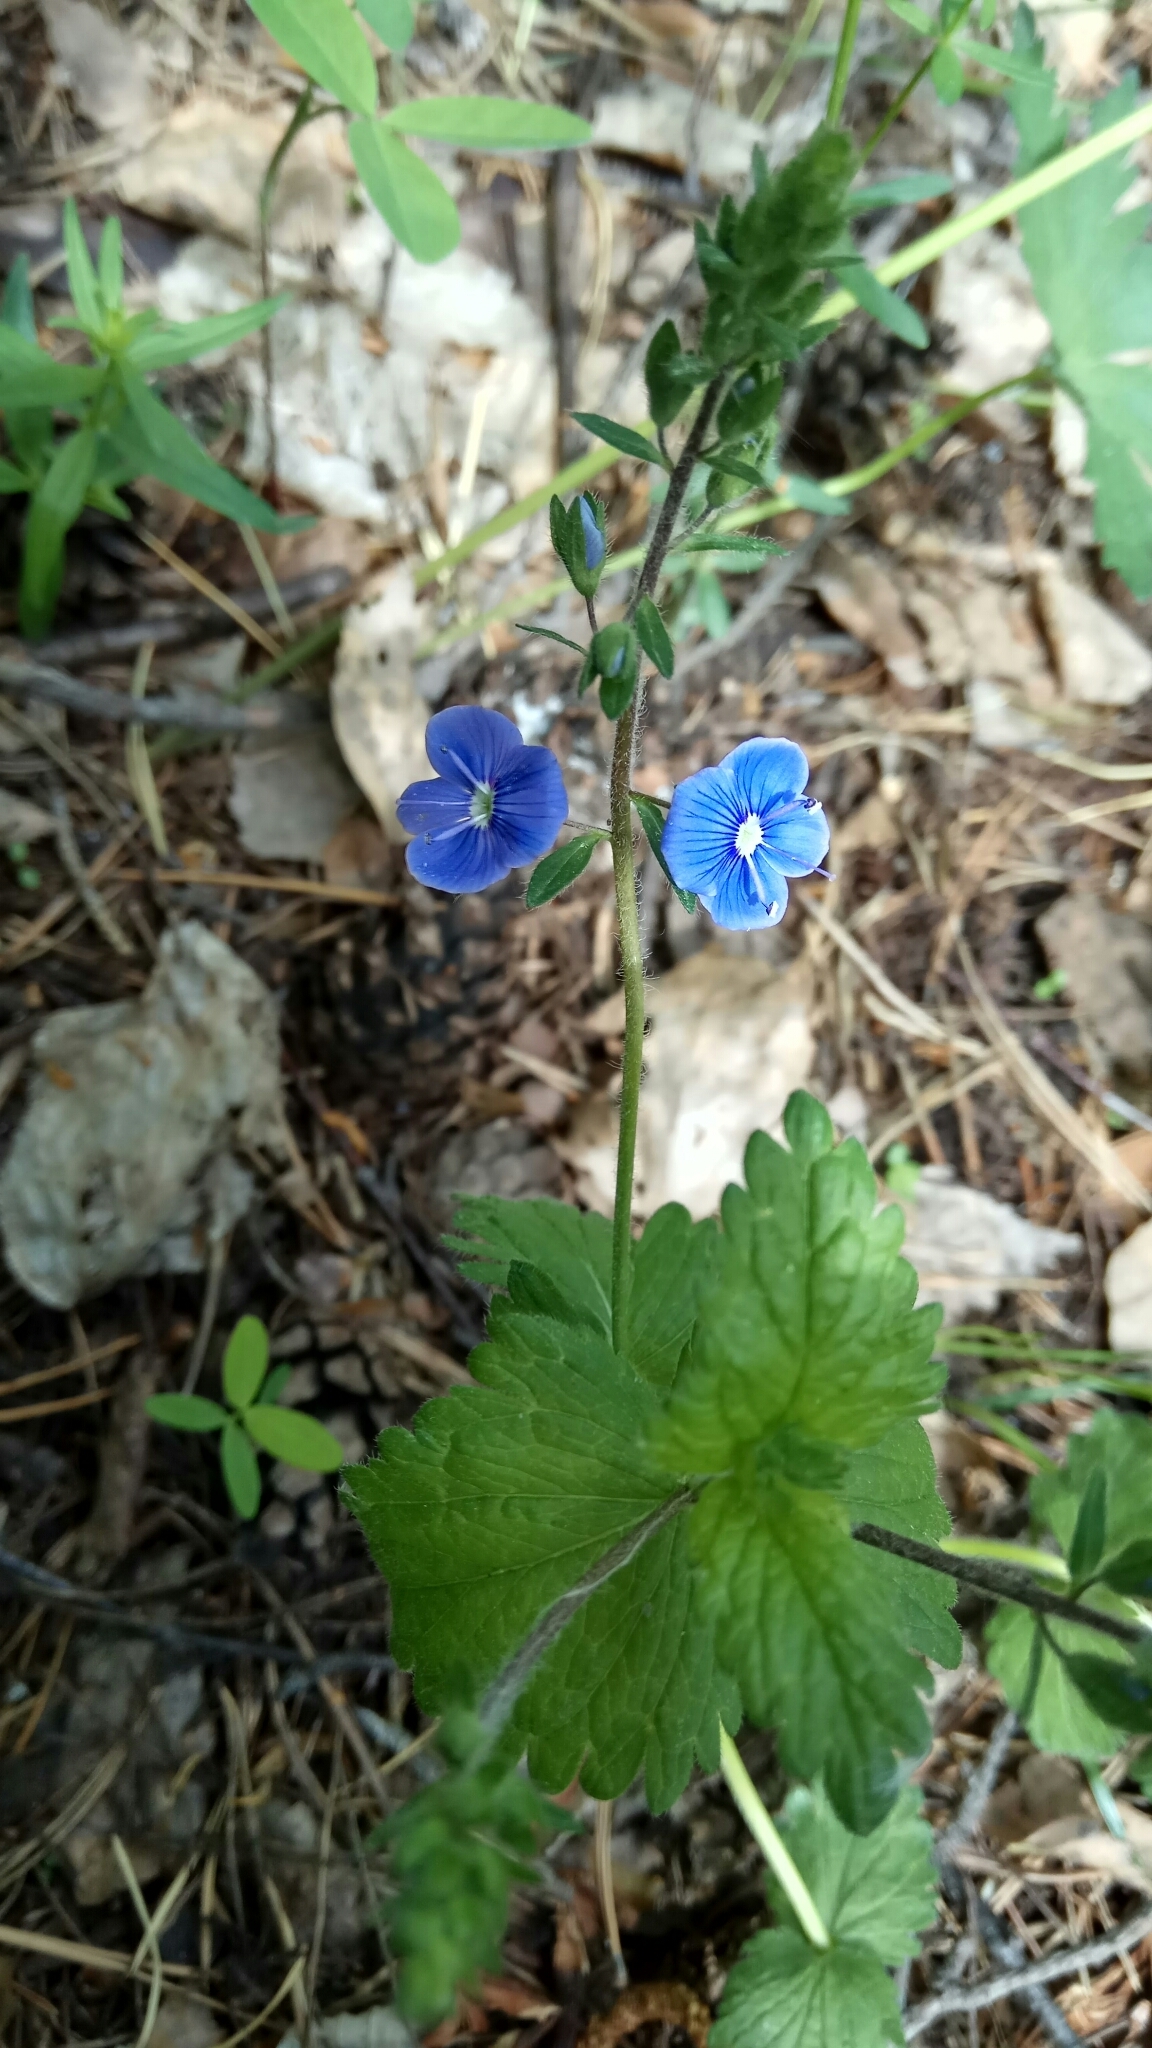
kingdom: Plantae
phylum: Tracheophyta
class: Magnoliopsida
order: Lamiales
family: Plantaginaceae
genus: Veronica
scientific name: Veronica chamaedrys
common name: Germander speedwell
